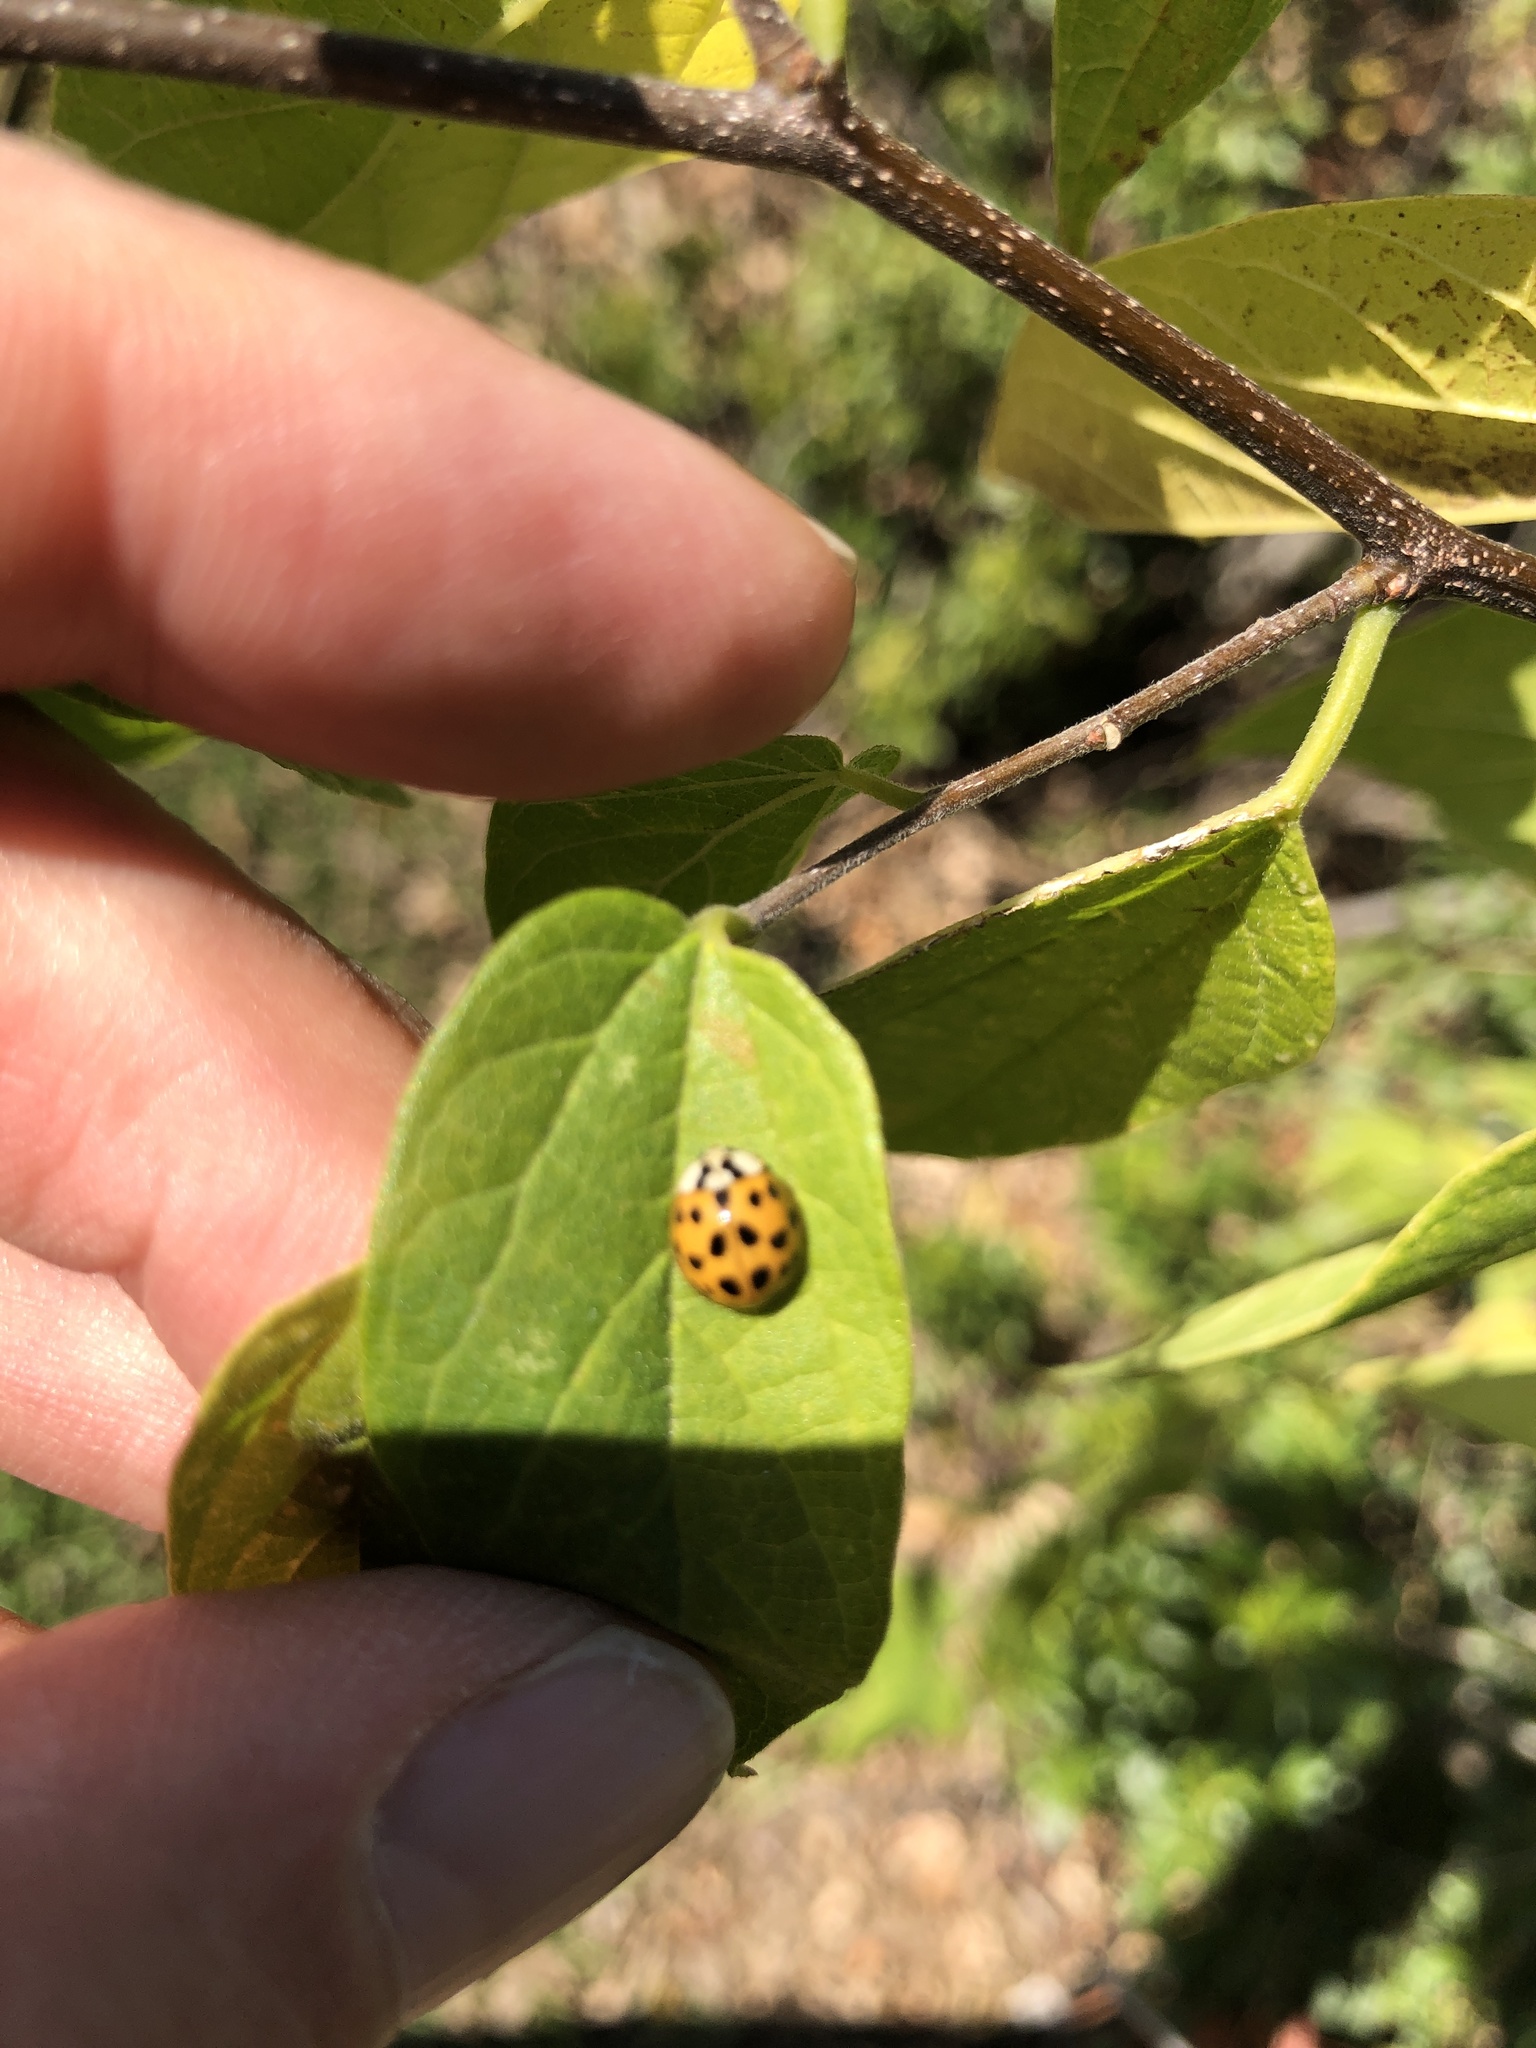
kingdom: Animalia
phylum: Arthropoda
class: Insecta
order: Coleoptera
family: Coccinellidae
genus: Harmonia
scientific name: Harmonia axyridis
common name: Harlequin ladybird
